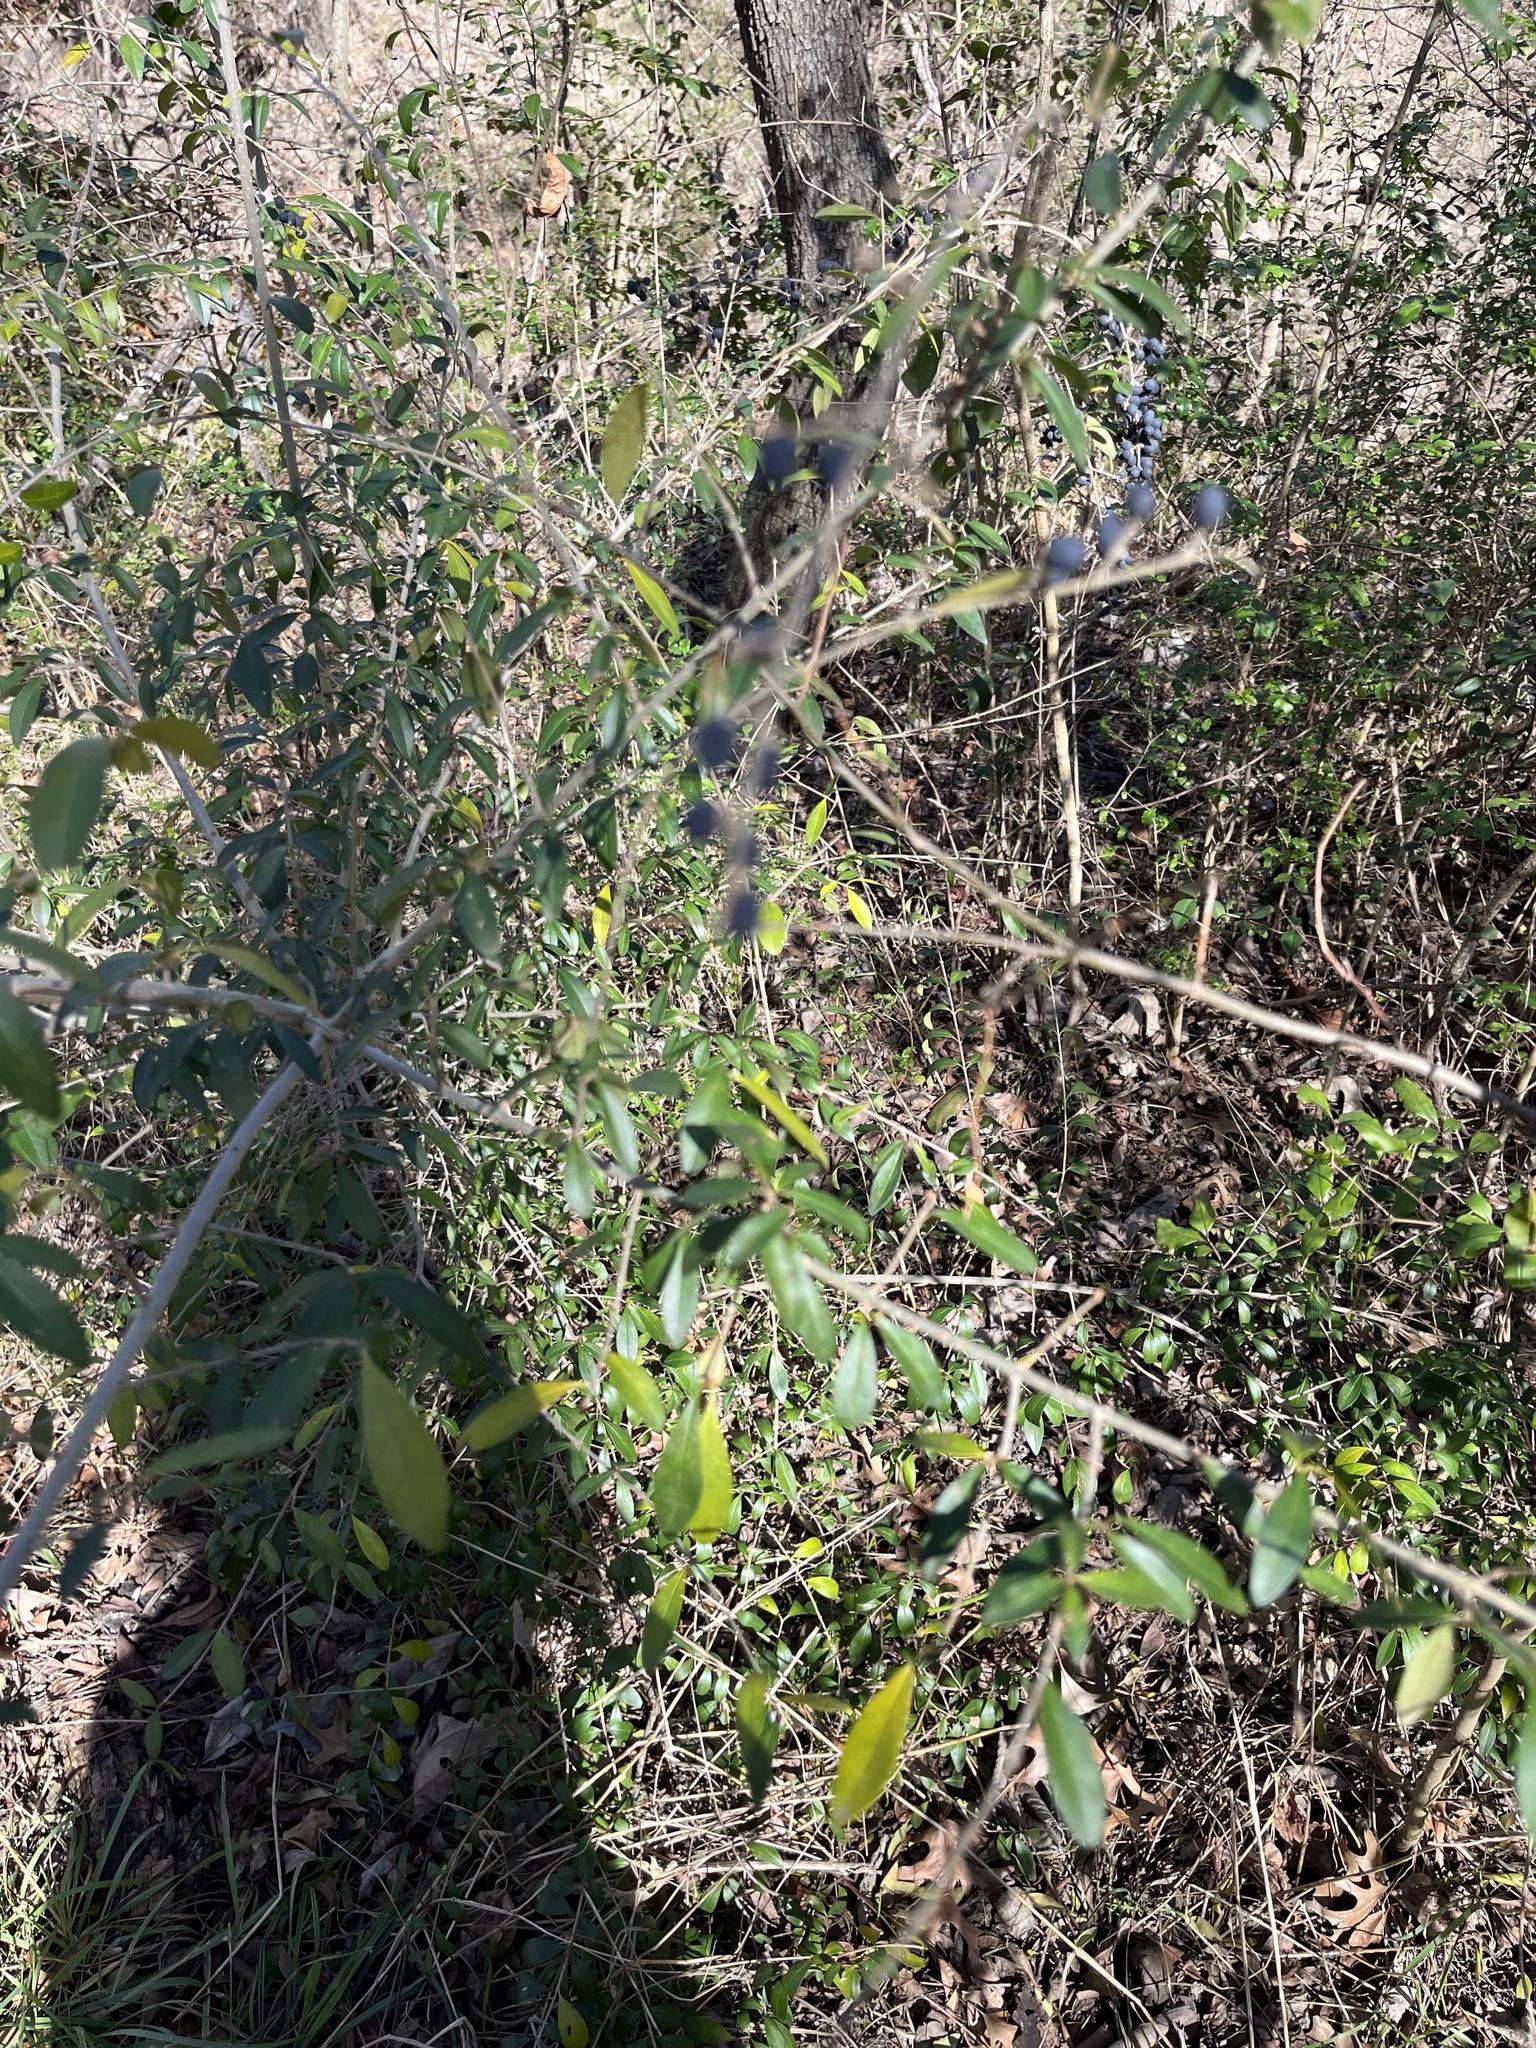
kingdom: Plantae
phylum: Tracheophyta
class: Magnoliopsida
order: Lamiales
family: Oleaceae
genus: Ligustrum
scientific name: Ligustrum quihoui
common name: Waxyleaf privet
